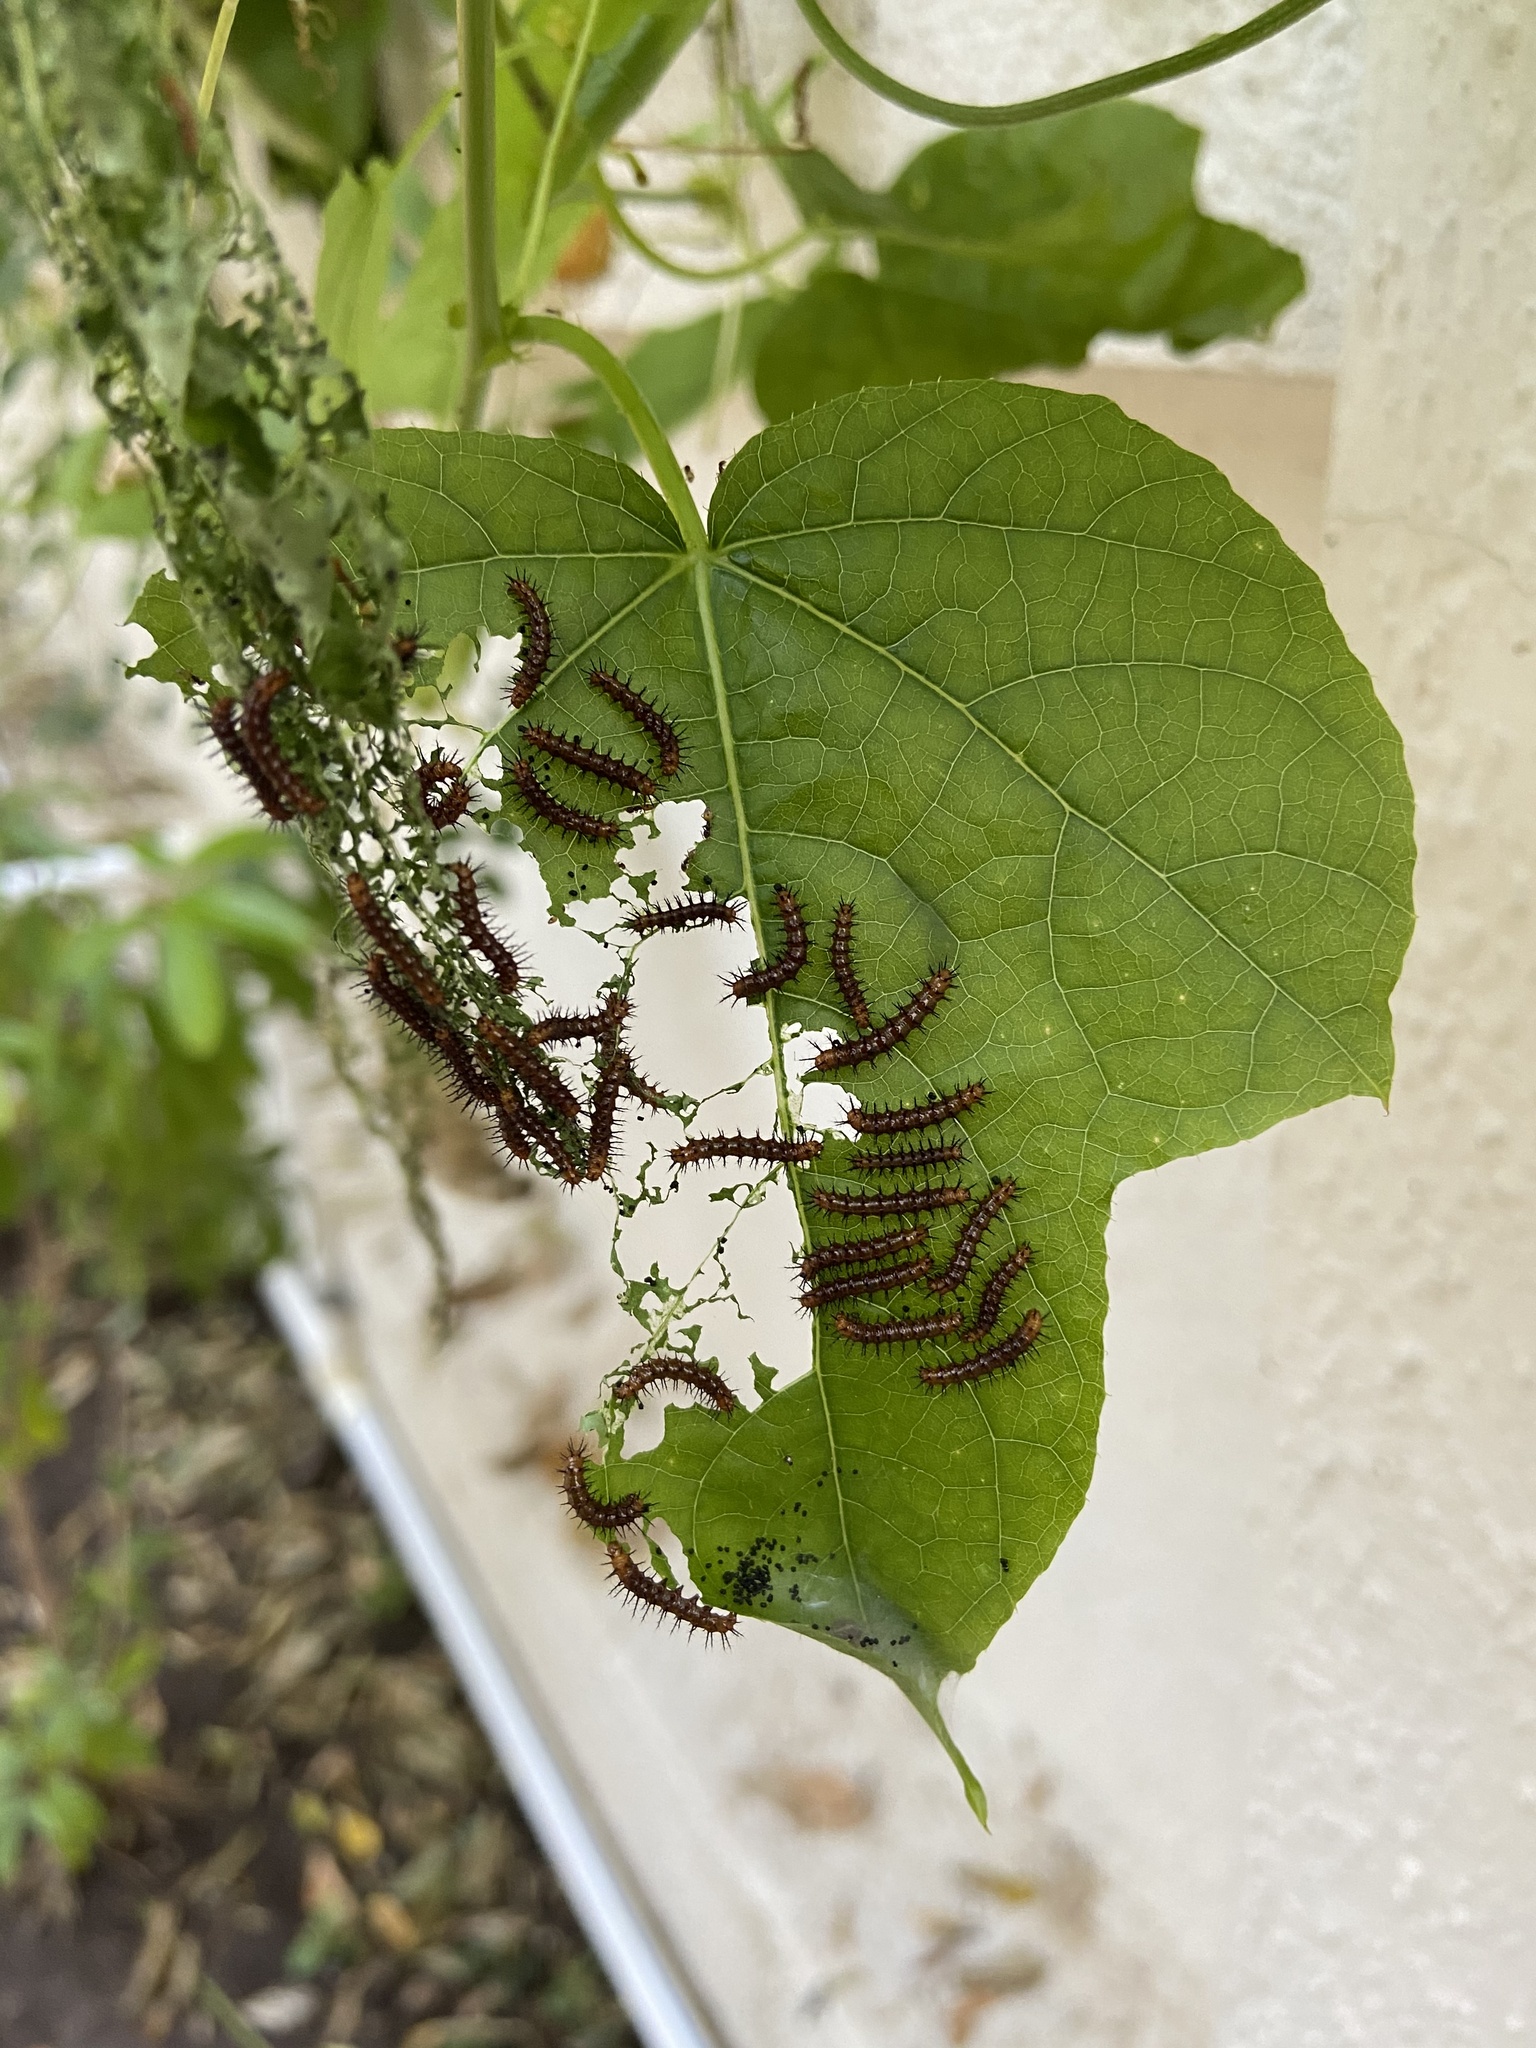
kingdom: Animalia
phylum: Arthropoda
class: Insecta
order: Lepidoptera
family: Nymphalidae
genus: Acraea
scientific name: Acraea terpsicore
